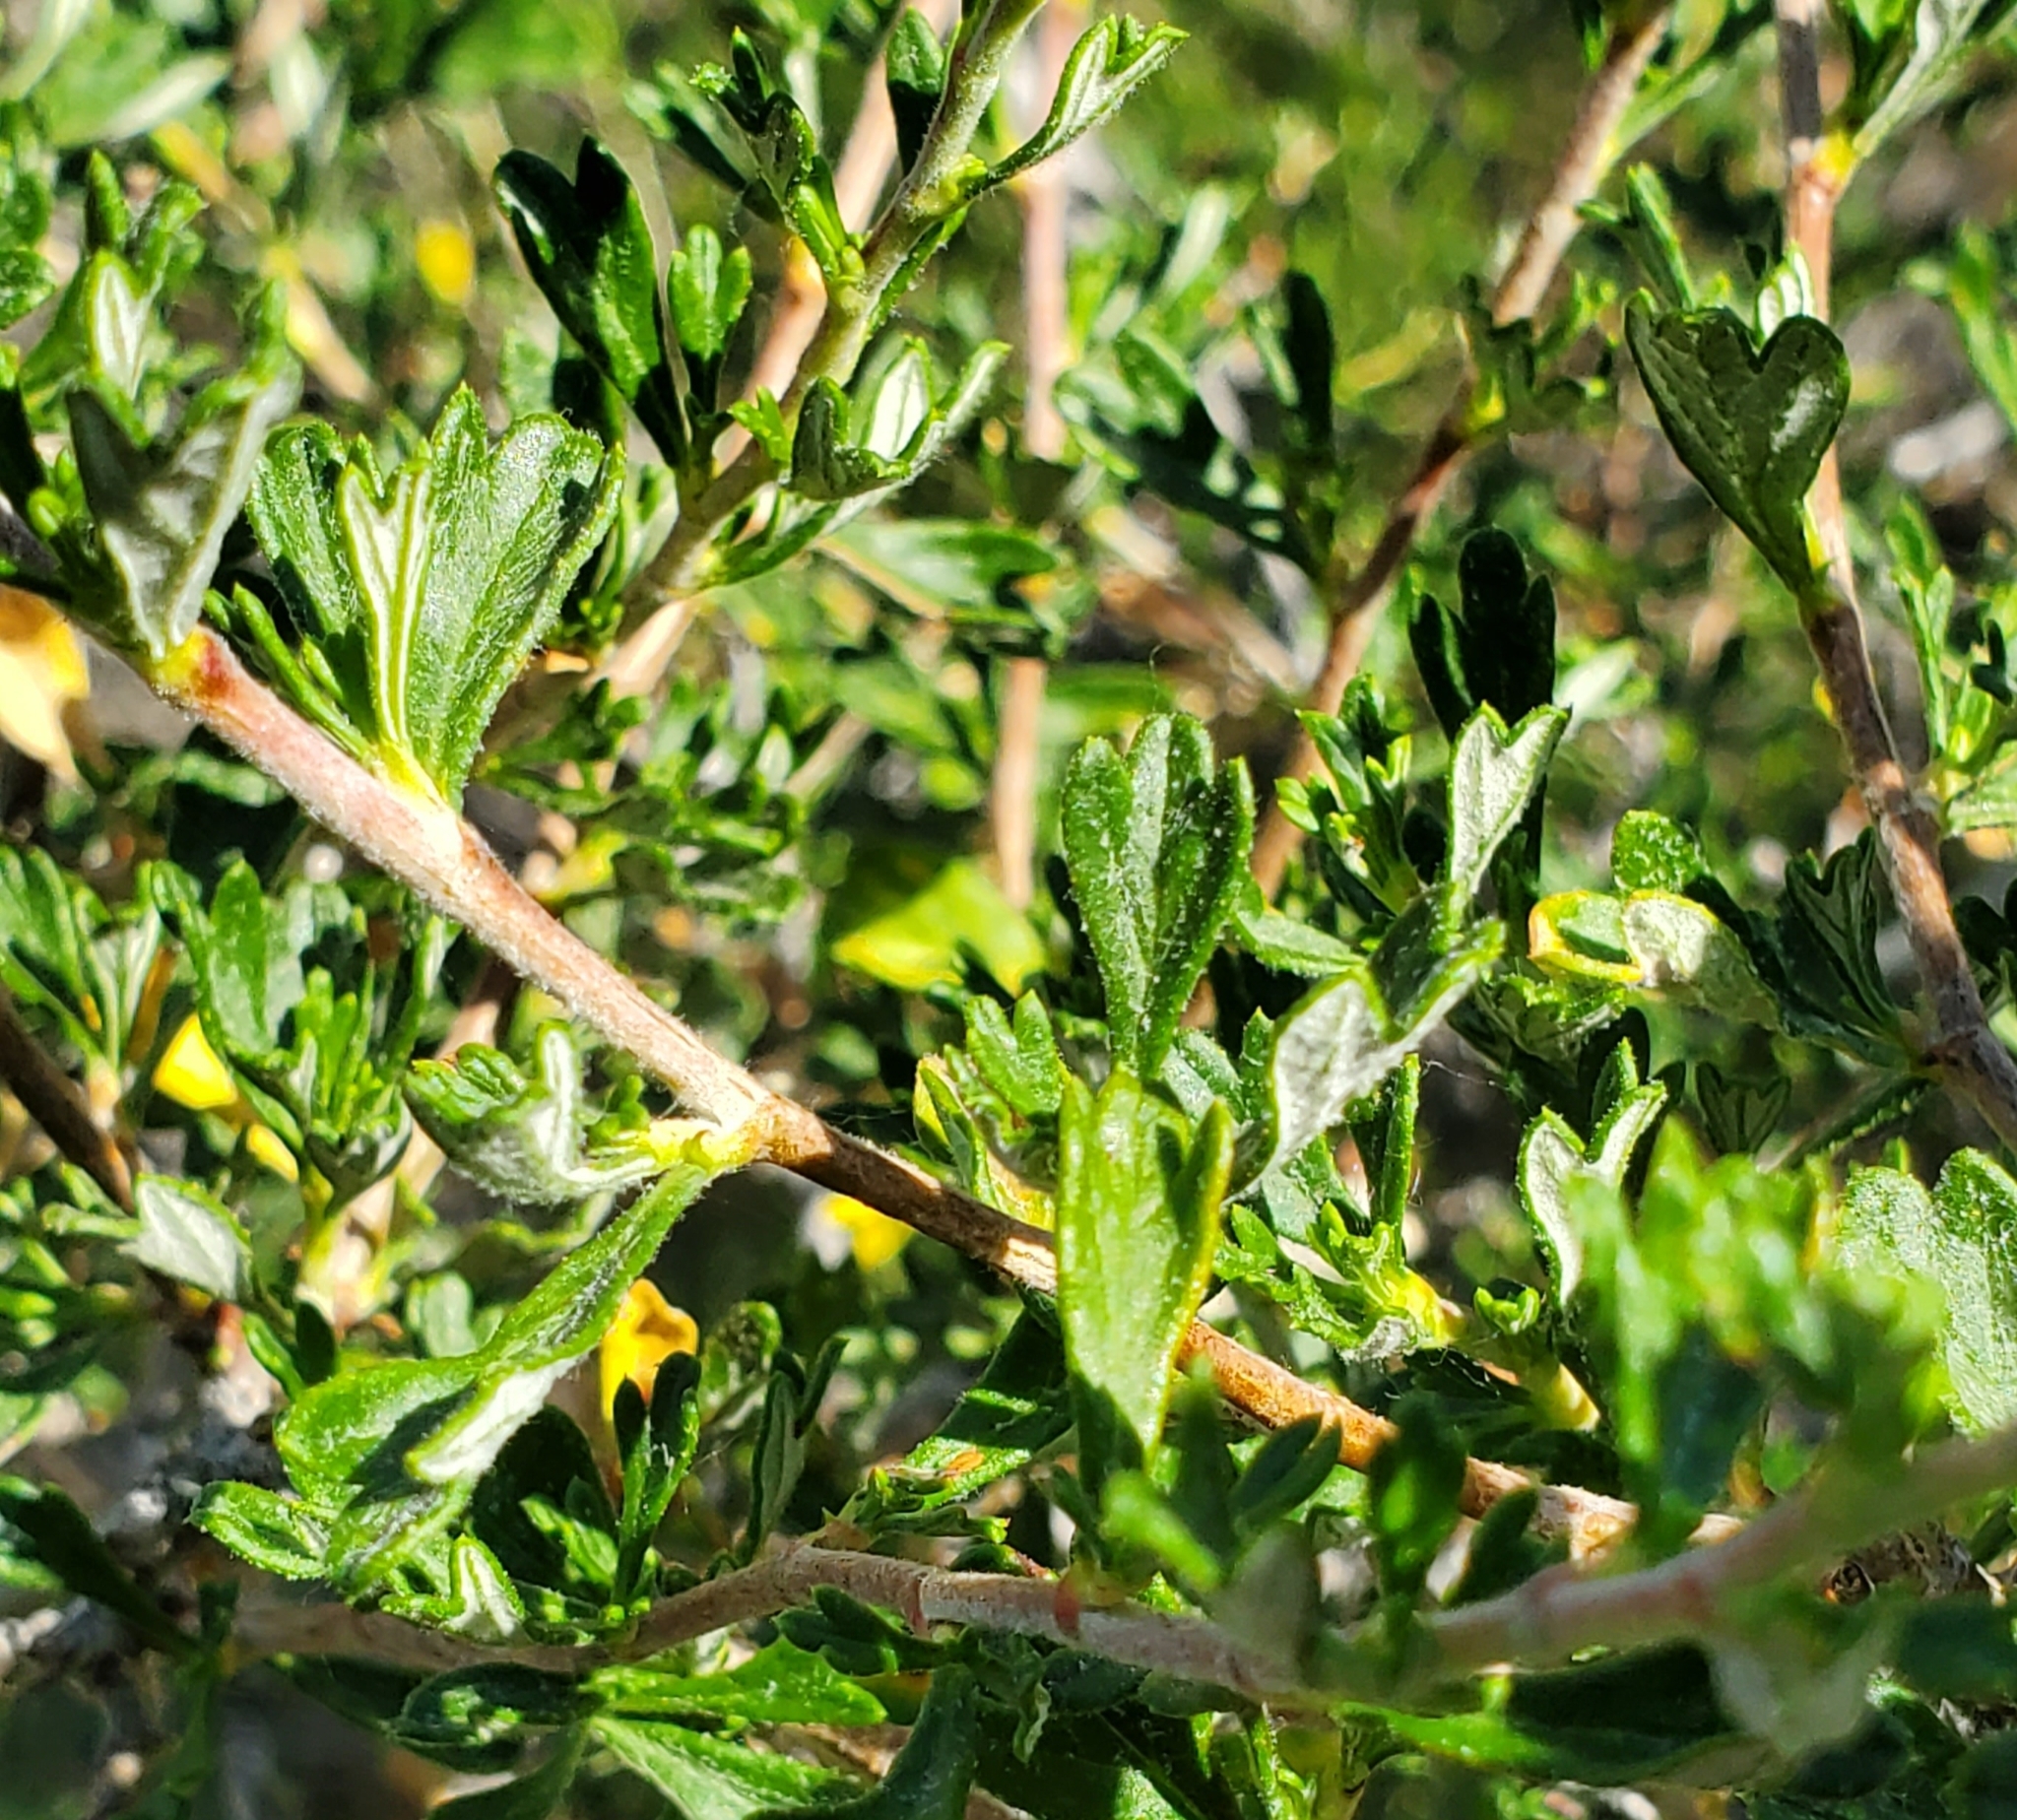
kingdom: Plantae
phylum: Tracheophyta
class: Magnoliopsida
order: Rosales
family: Rosaceae
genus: Purshia
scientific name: Purshia tridentata
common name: Antelope bitterbrush
